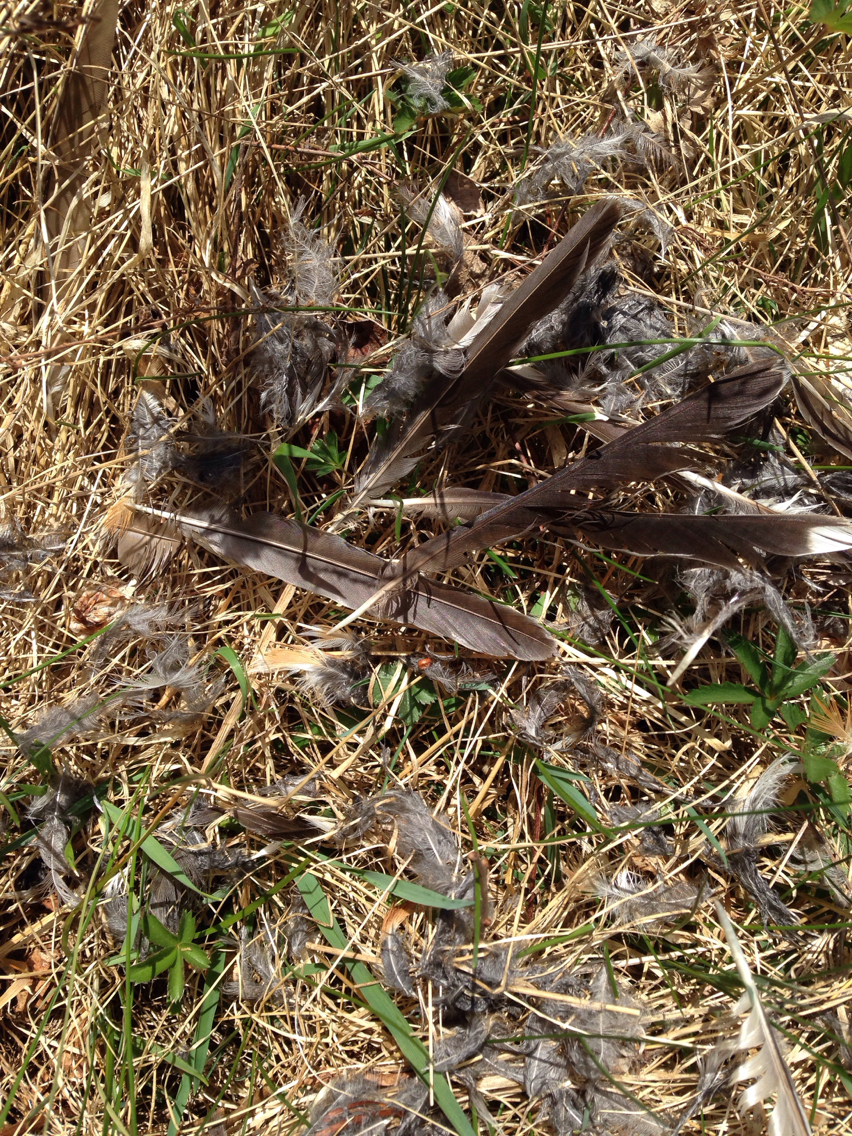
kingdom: Animalia
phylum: Chordata
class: Aves
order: Passeriformes
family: Turdidae
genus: Turdus
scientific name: Turdus migratorius
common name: American robin
